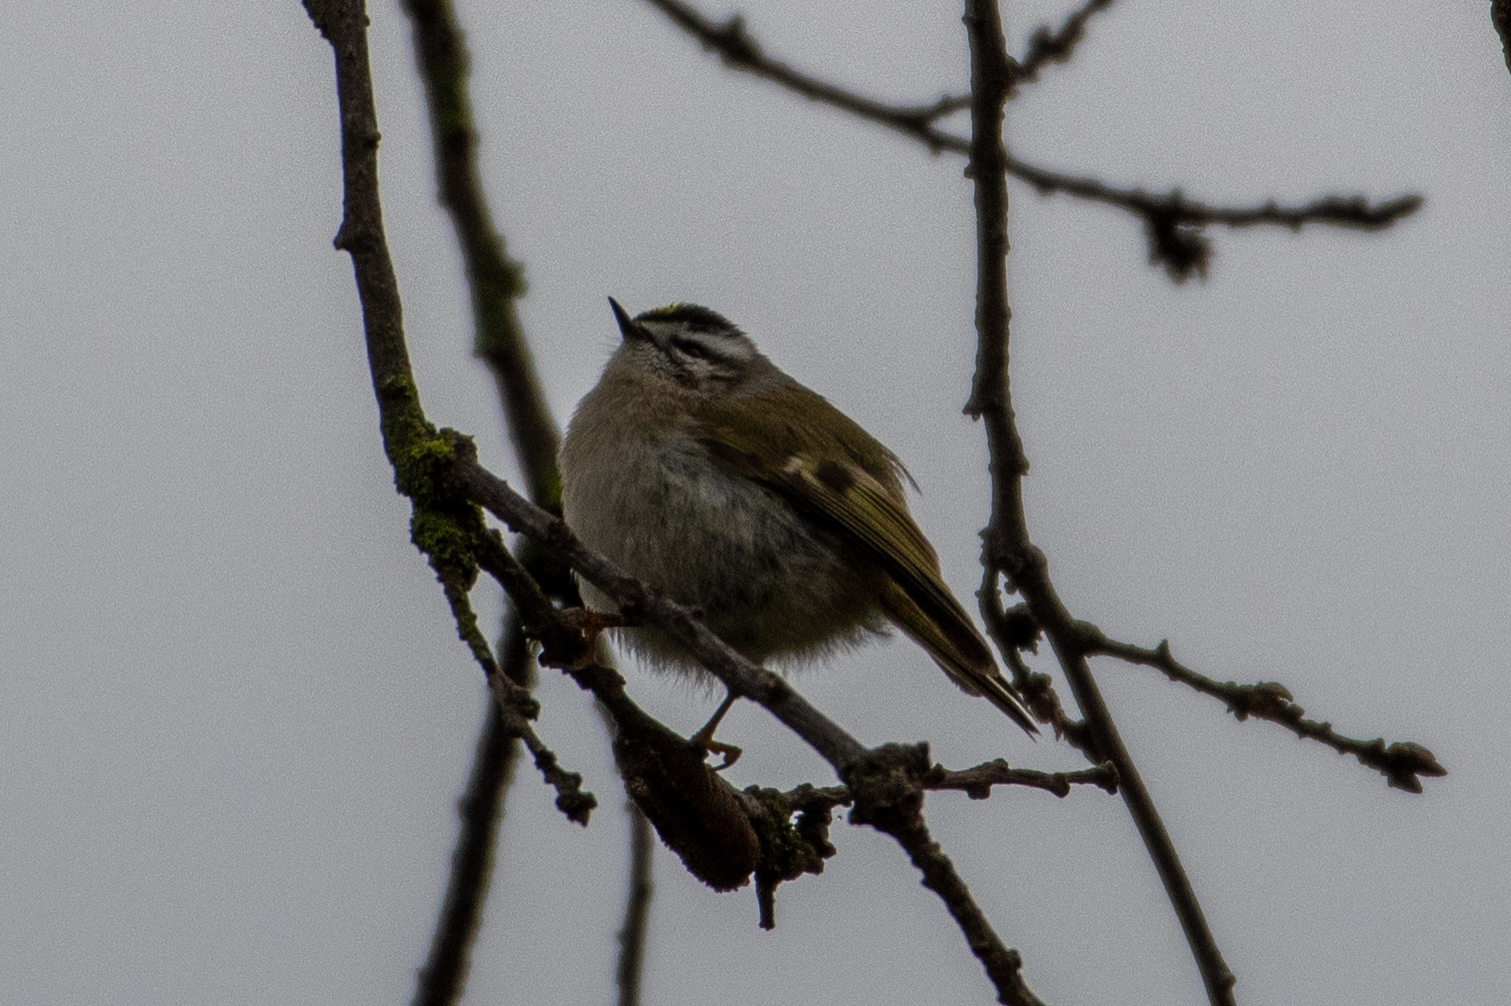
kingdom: Animalia
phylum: Chordata
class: Aves
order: Passeriformes
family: Regulidae
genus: Regulus
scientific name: Regulus satrapa
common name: Golden-crowned kinglet
